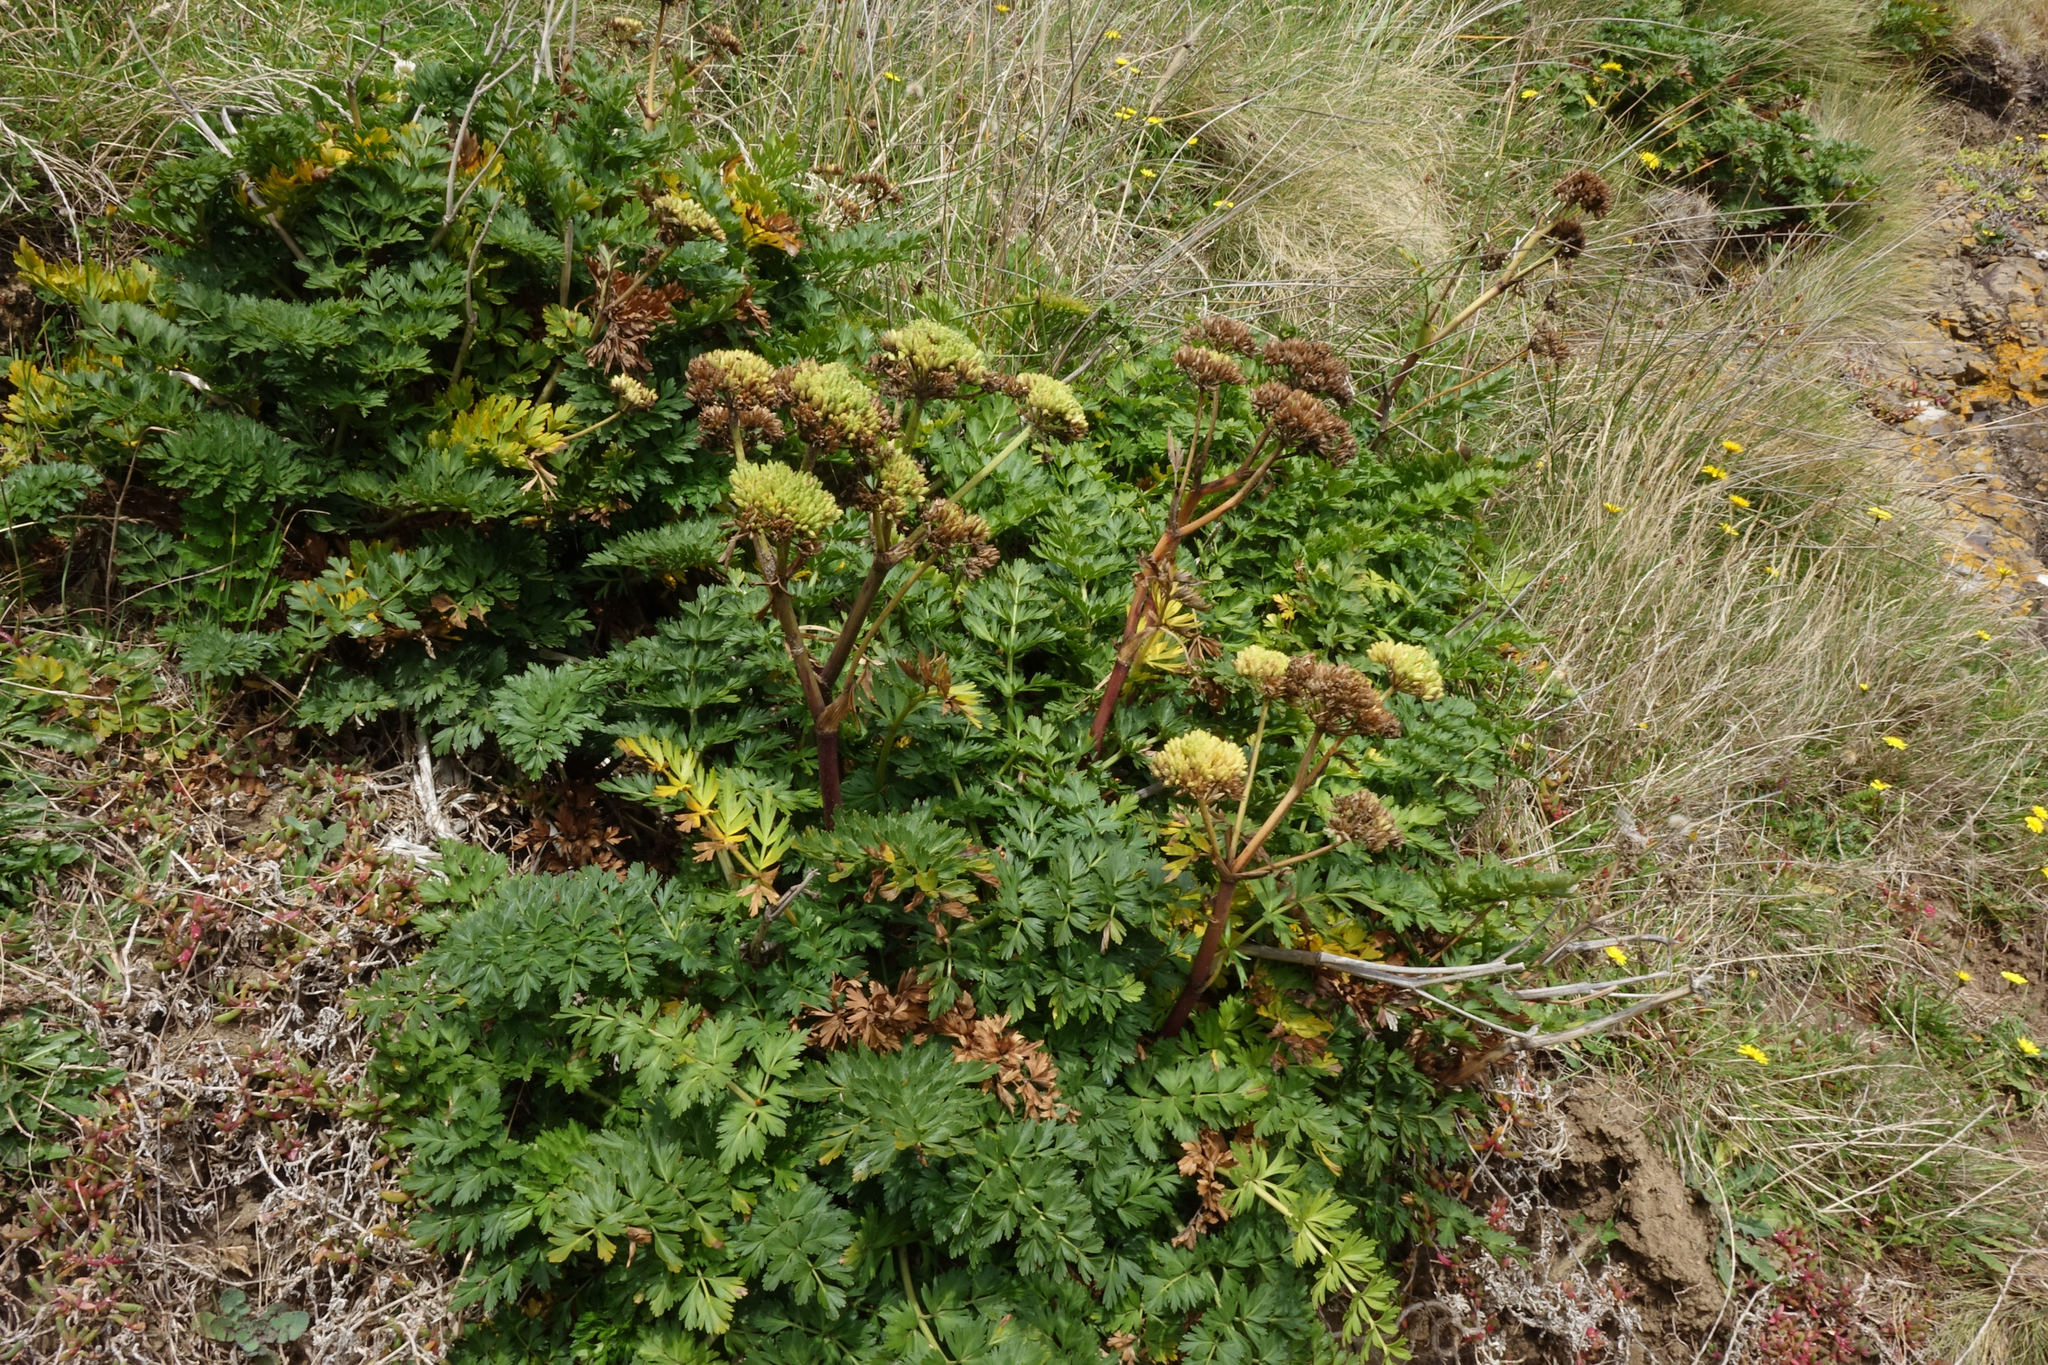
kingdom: Plantae
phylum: Tracheophyta
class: Magnoliopsida
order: Apiales
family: Apiaceae
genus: Anisotome
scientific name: Anisotome lyallii
